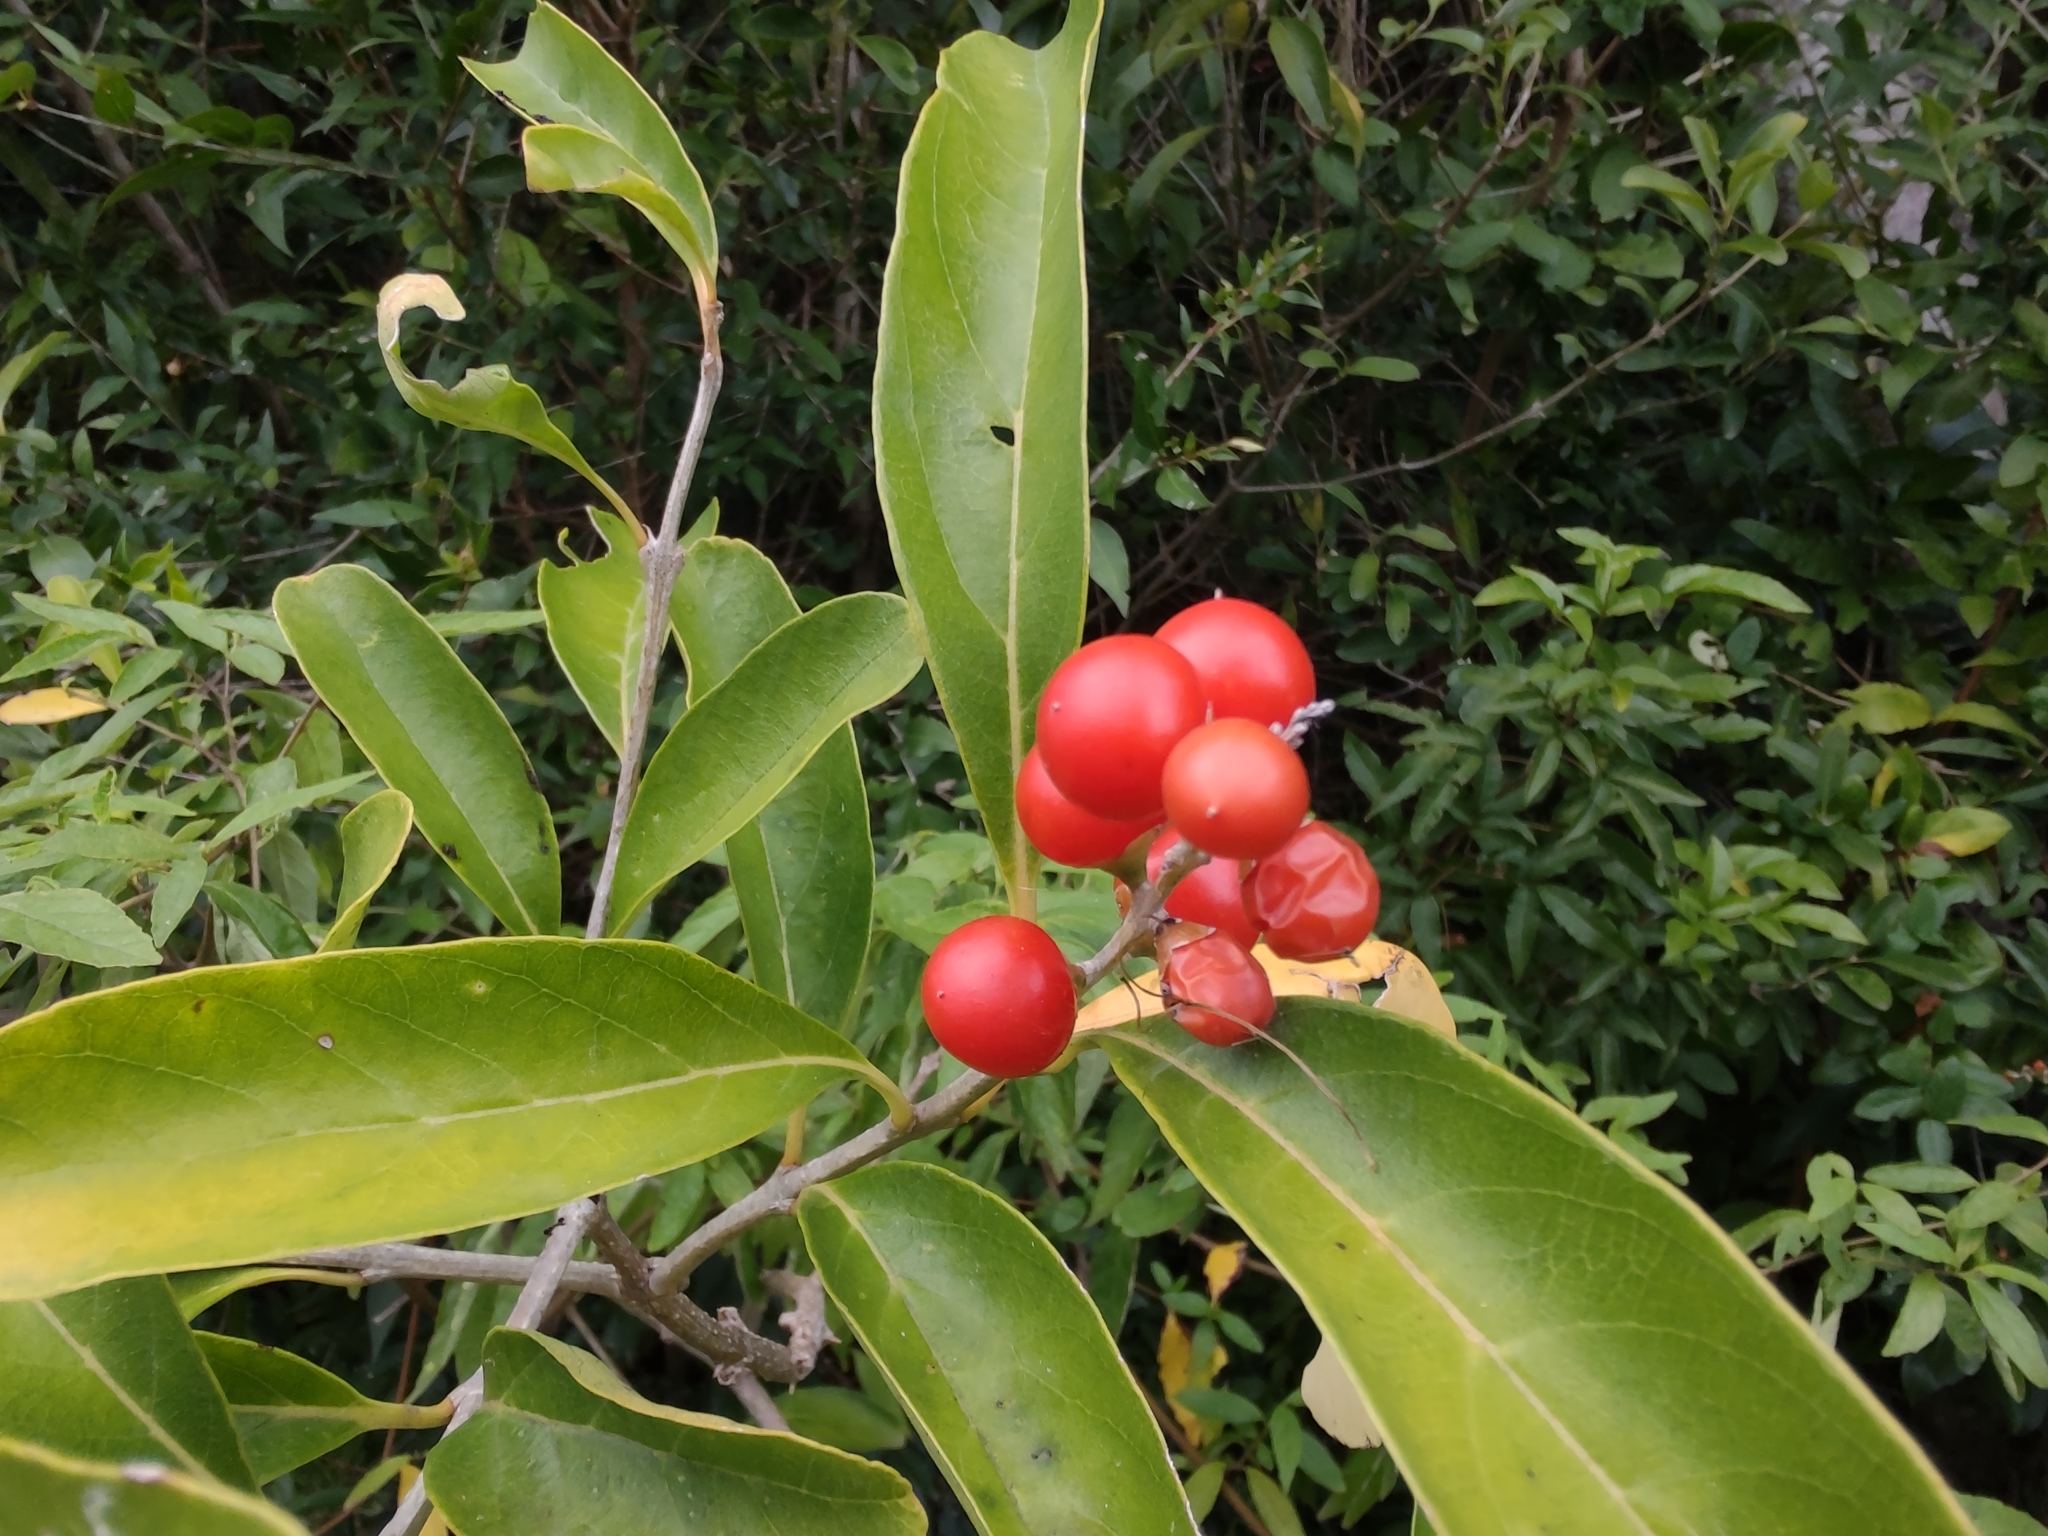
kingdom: Plantae
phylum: Tracheophyta
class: Magnoliopsida
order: Lamiales
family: Verbenaceae
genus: Citharexylum
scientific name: Citharexylum montevidense
